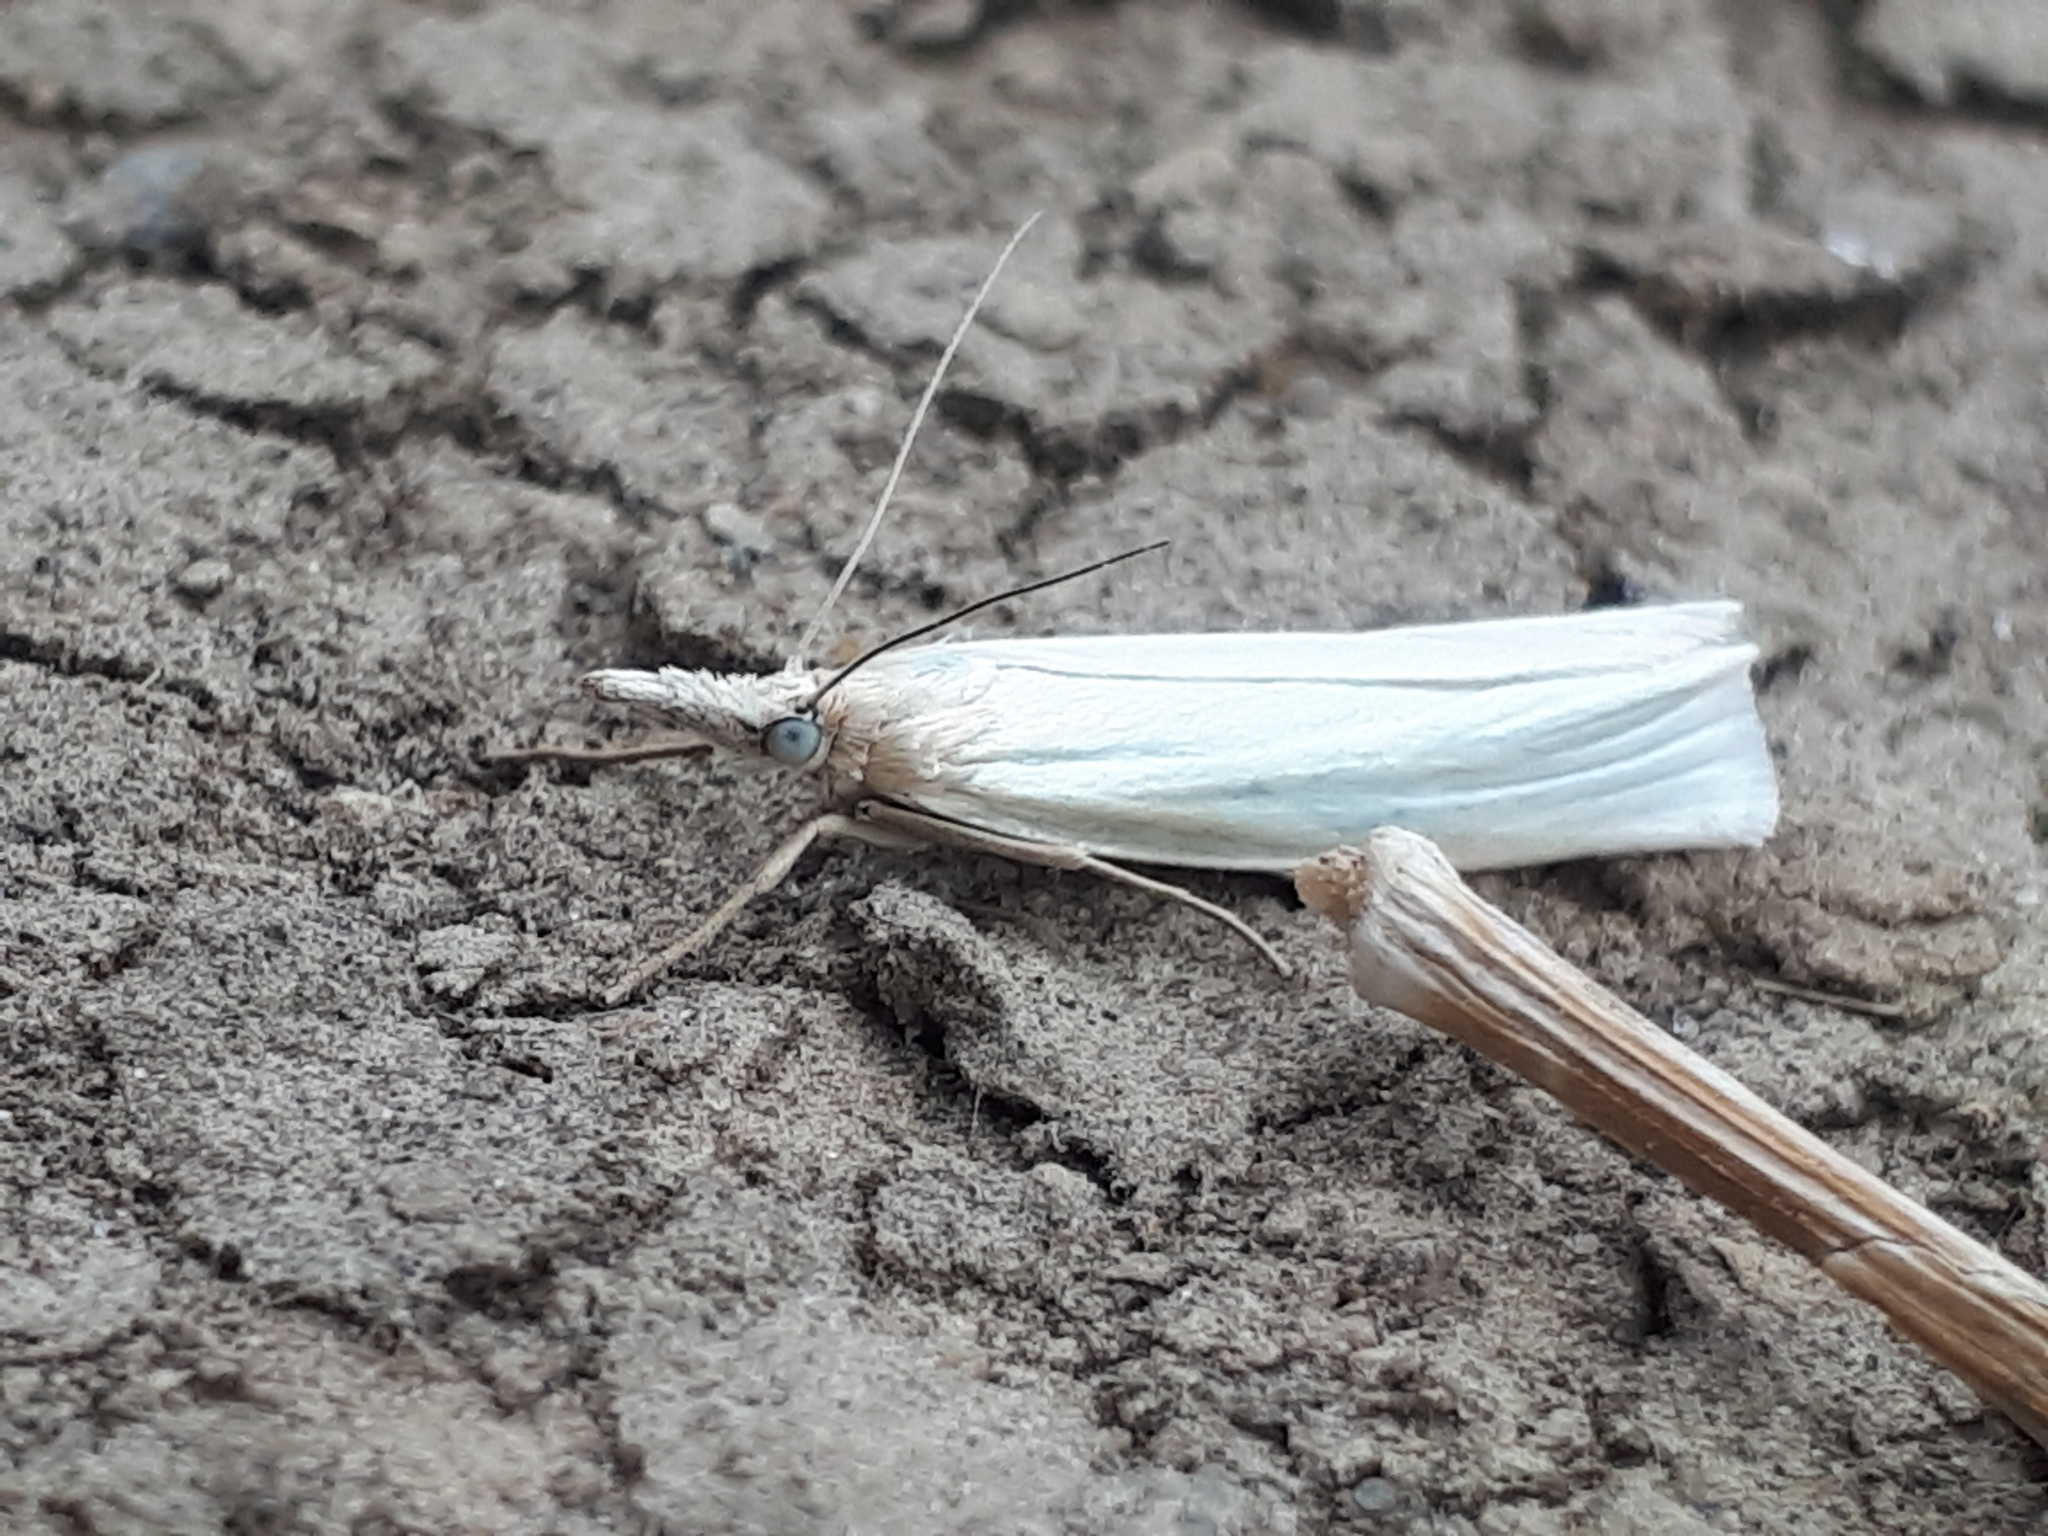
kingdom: Animalia
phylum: Arthropoda
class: Insecta
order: Lepidoptera
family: Crambidae
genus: Crambus
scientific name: Crambus perlellus
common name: Yellow satin veneer
